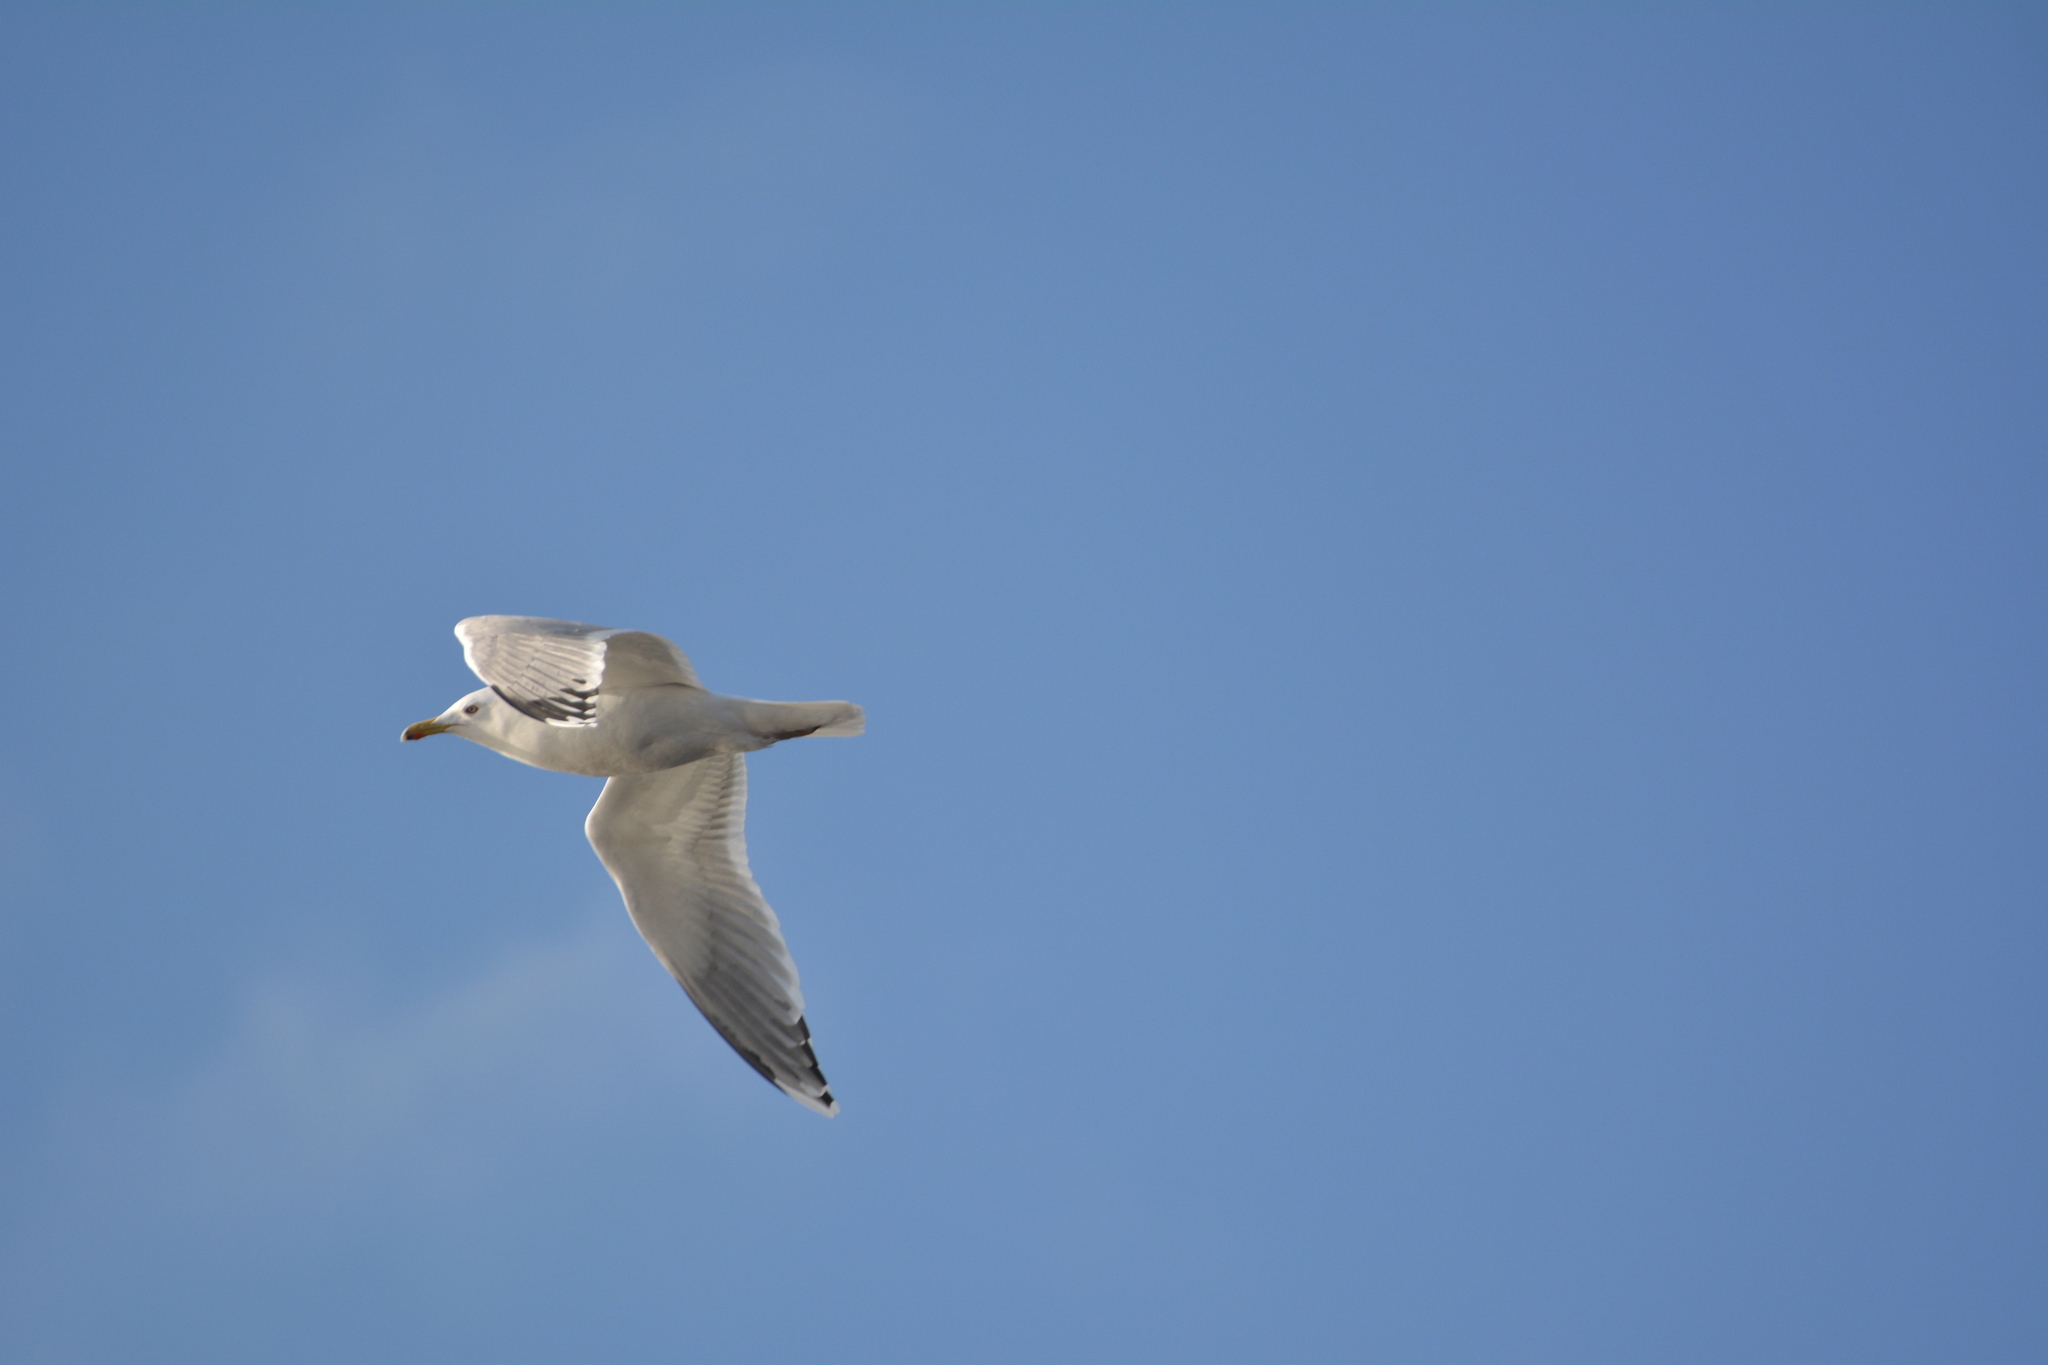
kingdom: Animalia
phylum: Chordata
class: Aves
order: Charadriiformes
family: Laridae
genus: Larus
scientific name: Larus argentatus
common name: Herring gull
